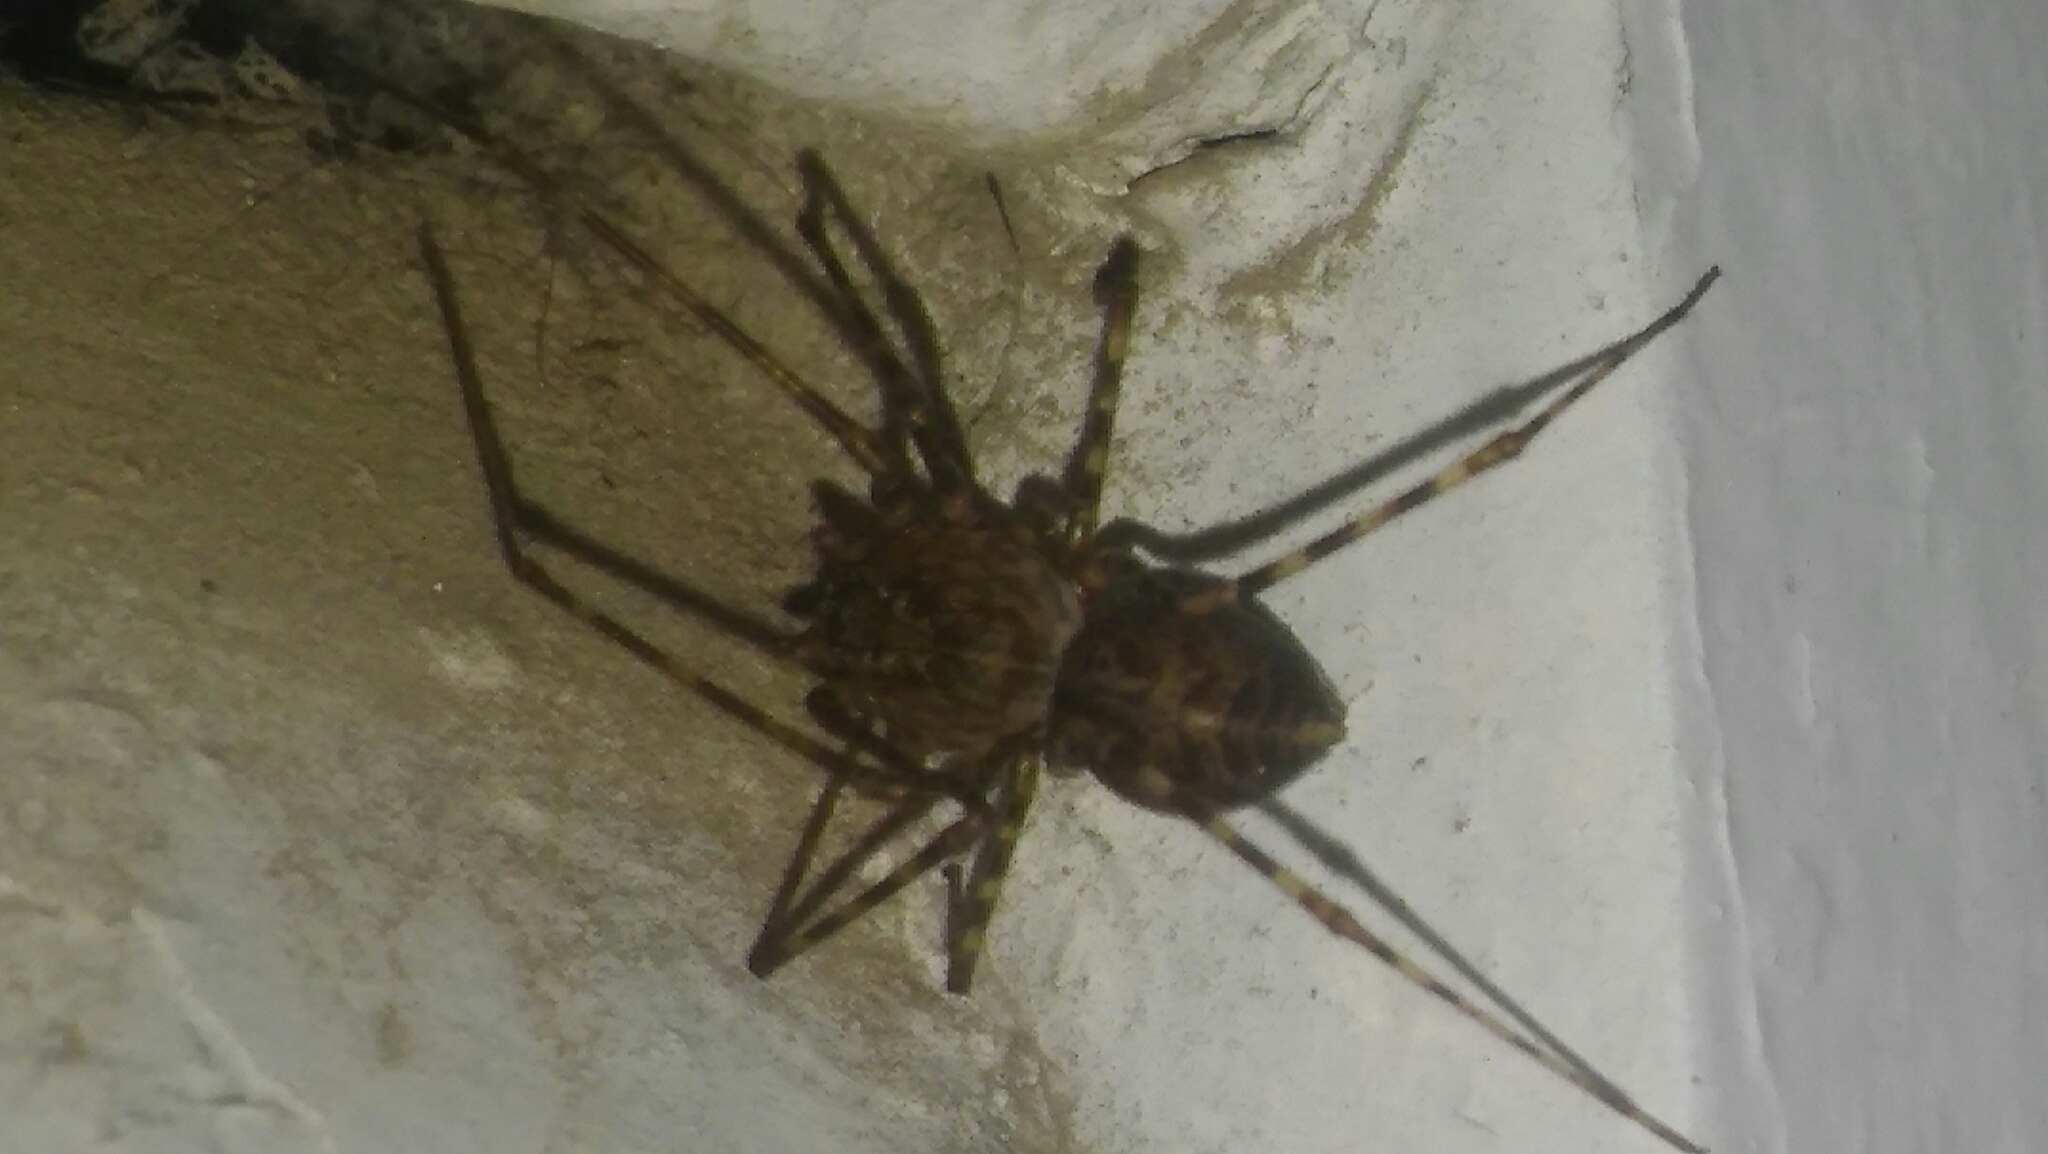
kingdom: Animalia
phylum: Arthropoda
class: Arachnida
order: Araneae
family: Scytodidae
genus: Scytodes
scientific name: Scytodes globula
